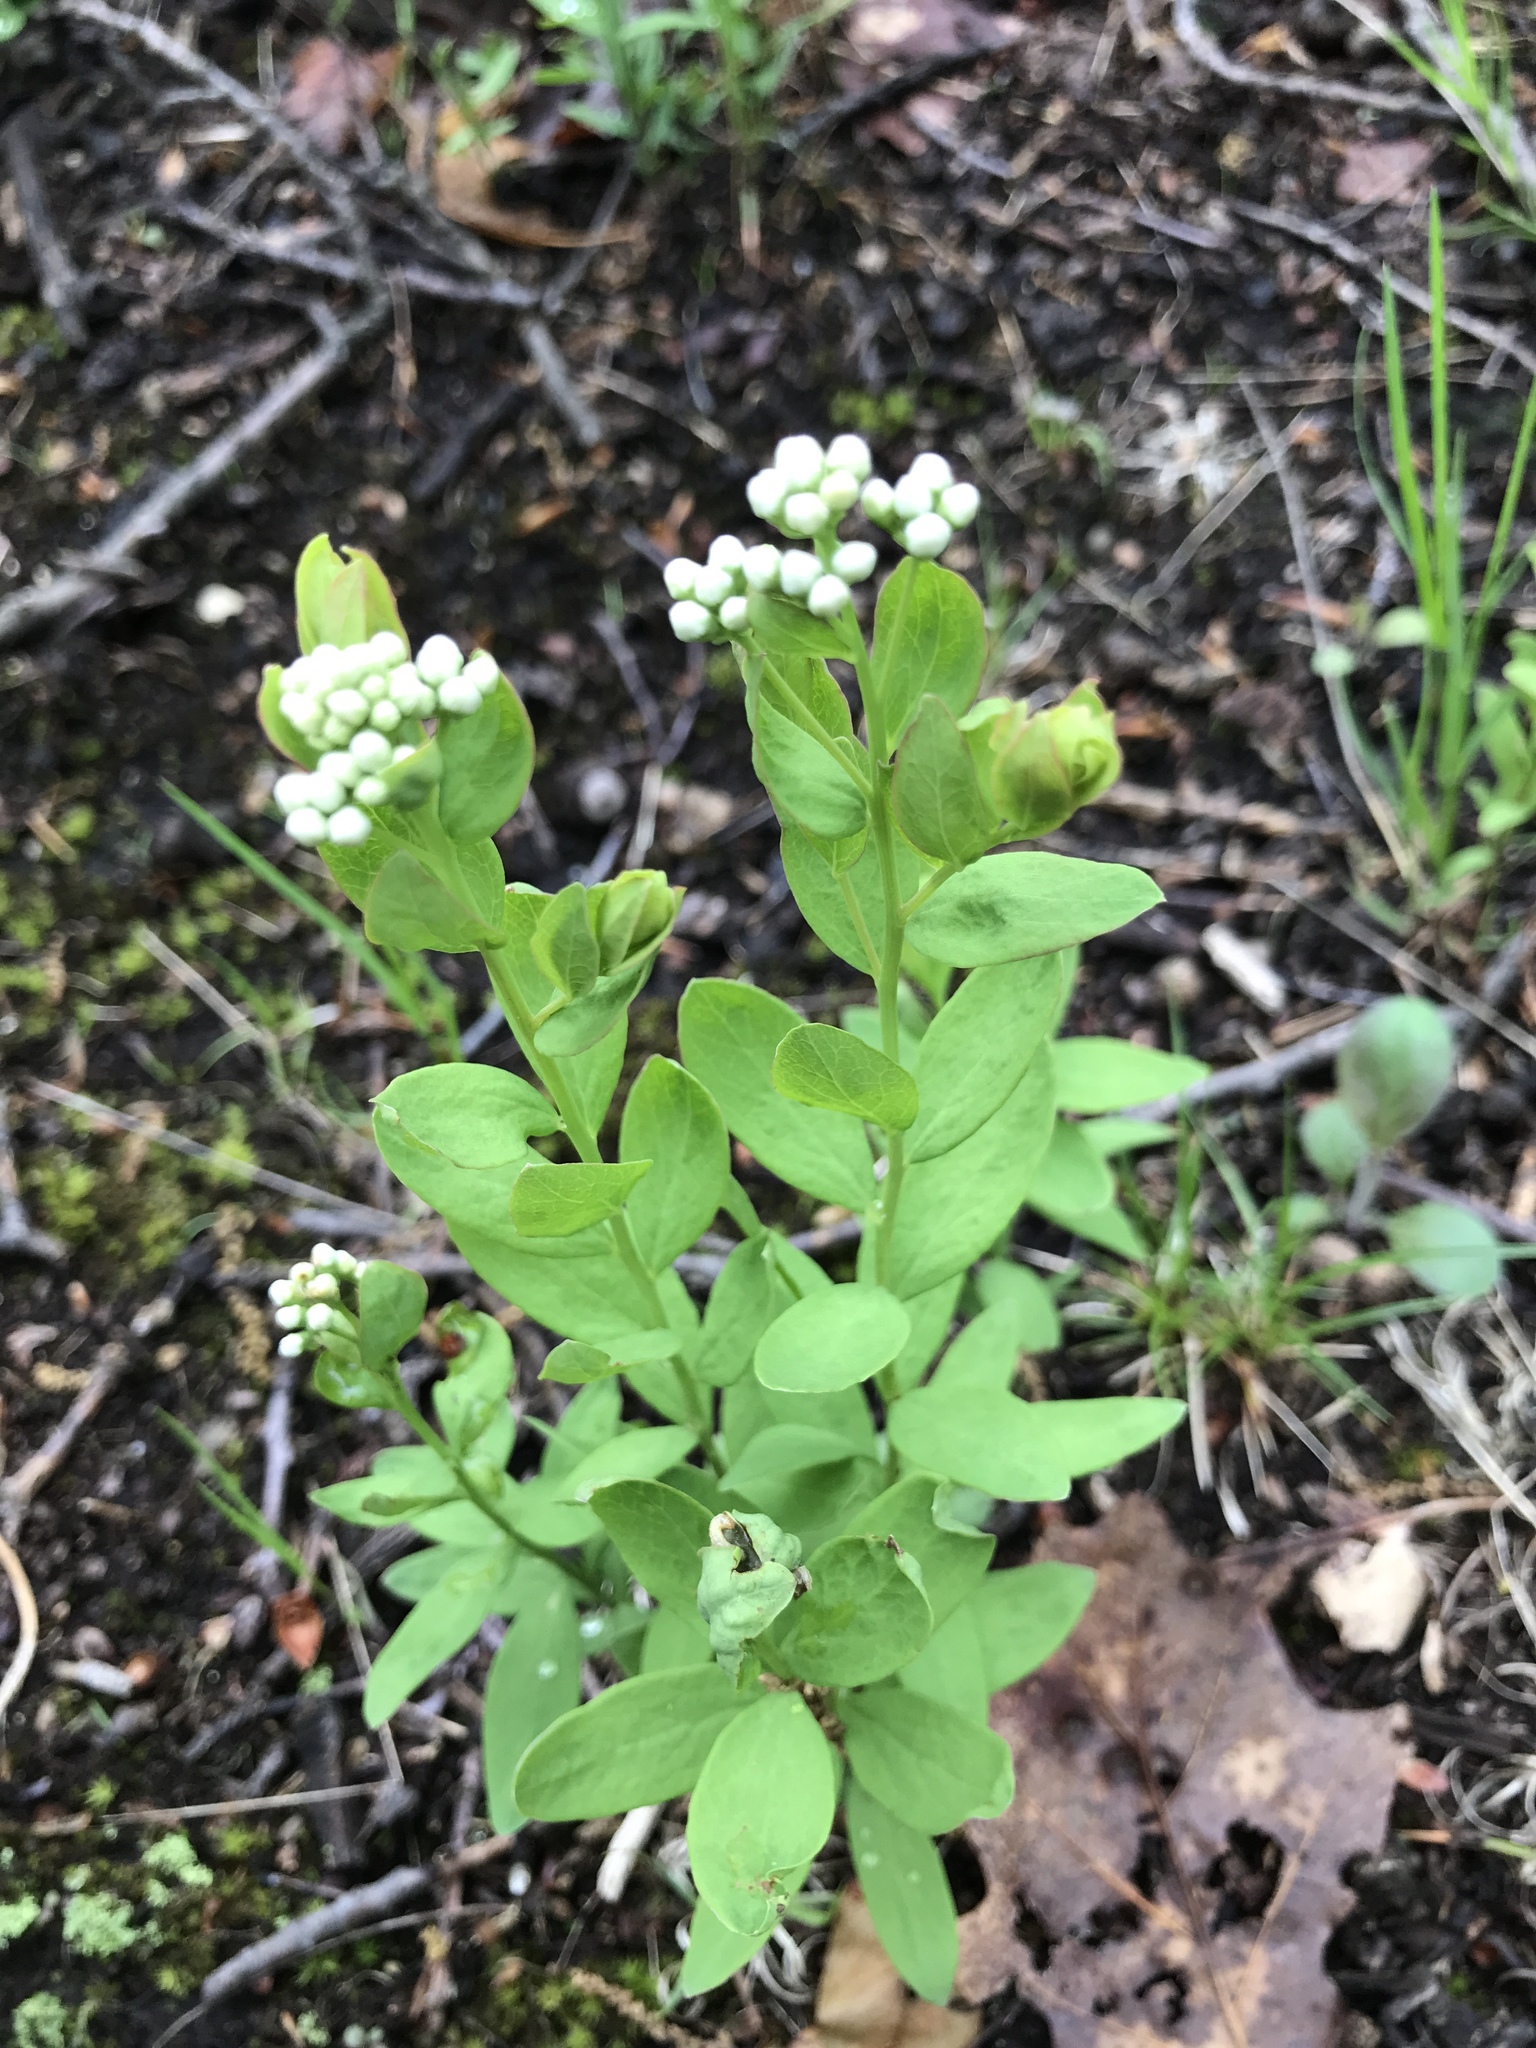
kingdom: Plantae
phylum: Tracheophyta
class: Magnoliopsida
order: Santalales
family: Comandraceae
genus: Comandra
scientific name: Comandra umbellata
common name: Bastard toadflax
